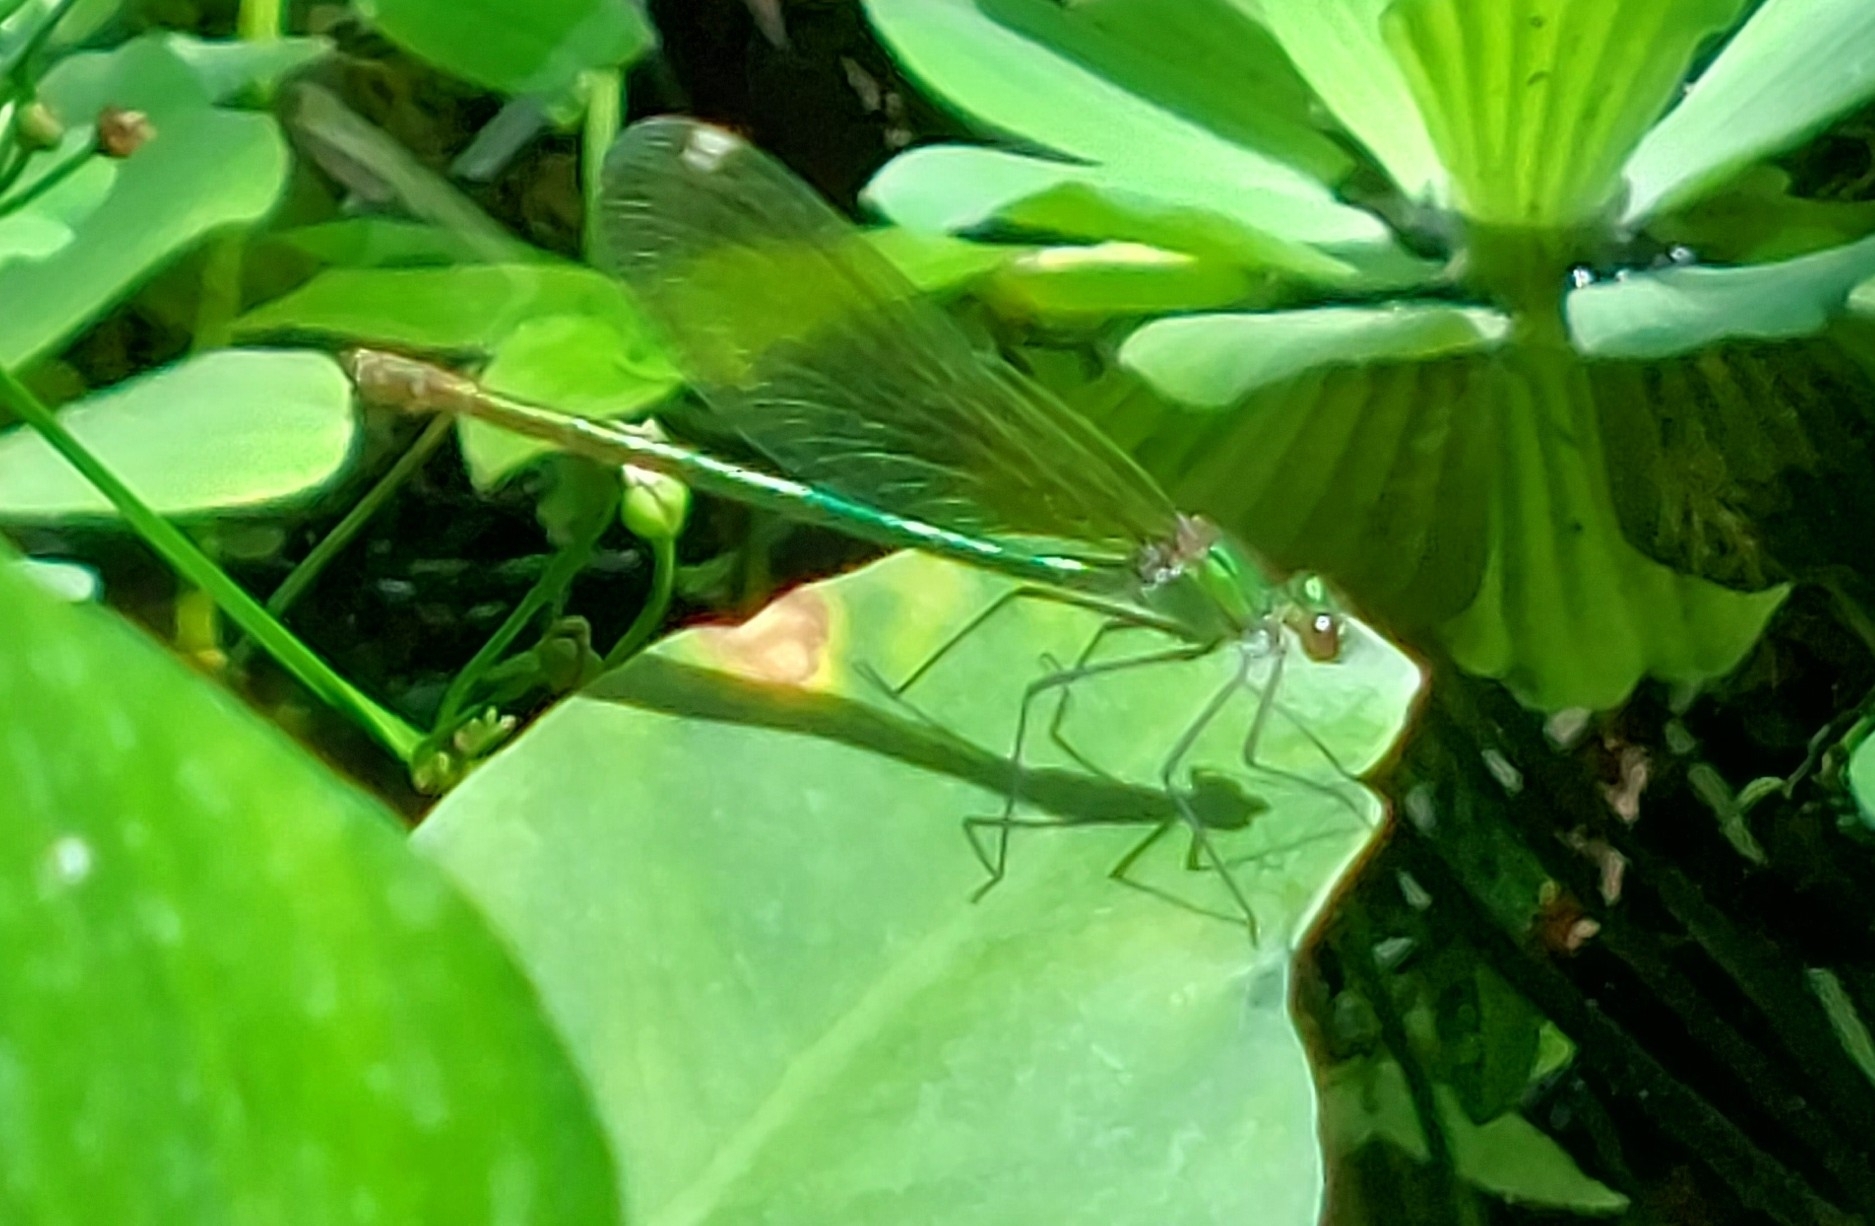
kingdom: Animalia
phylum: Arthropoda
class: Insecta
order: Odonata
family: Calopterygidae
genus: Calopteryx
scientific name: Calopteryx splendens
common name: Banded demoiselle
